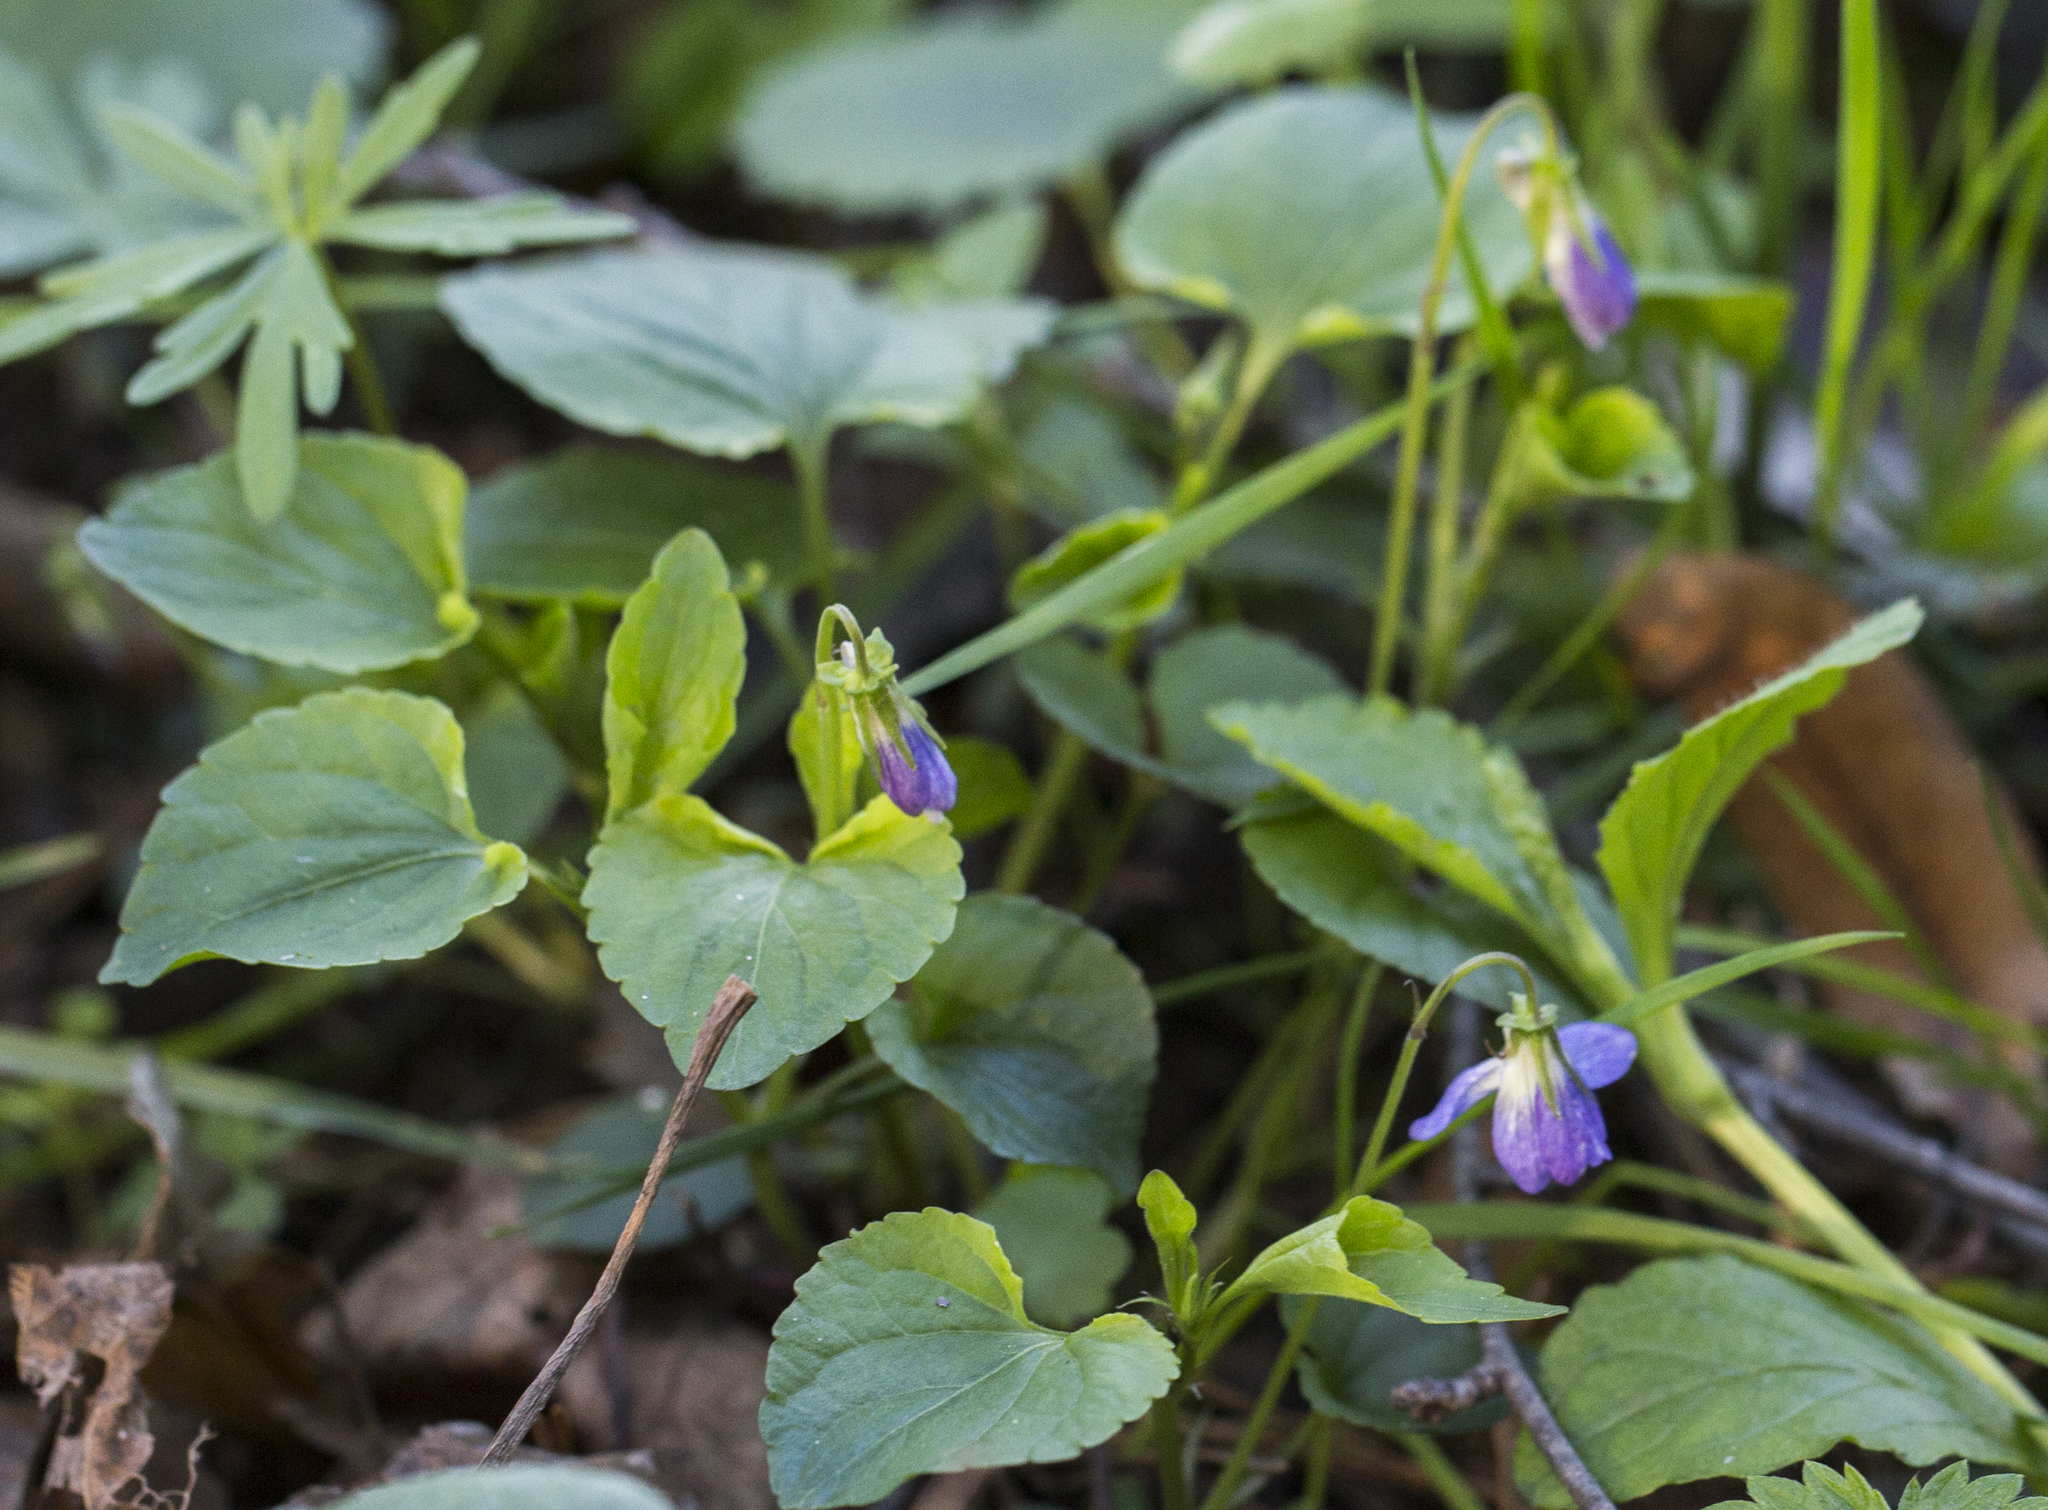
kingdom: Plantae
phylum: Tracheophyta
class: Magnoliopsida
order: Malpighiales
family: Violaceae
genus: Viola
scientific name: Viola riviniana
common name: Common dog-violet
